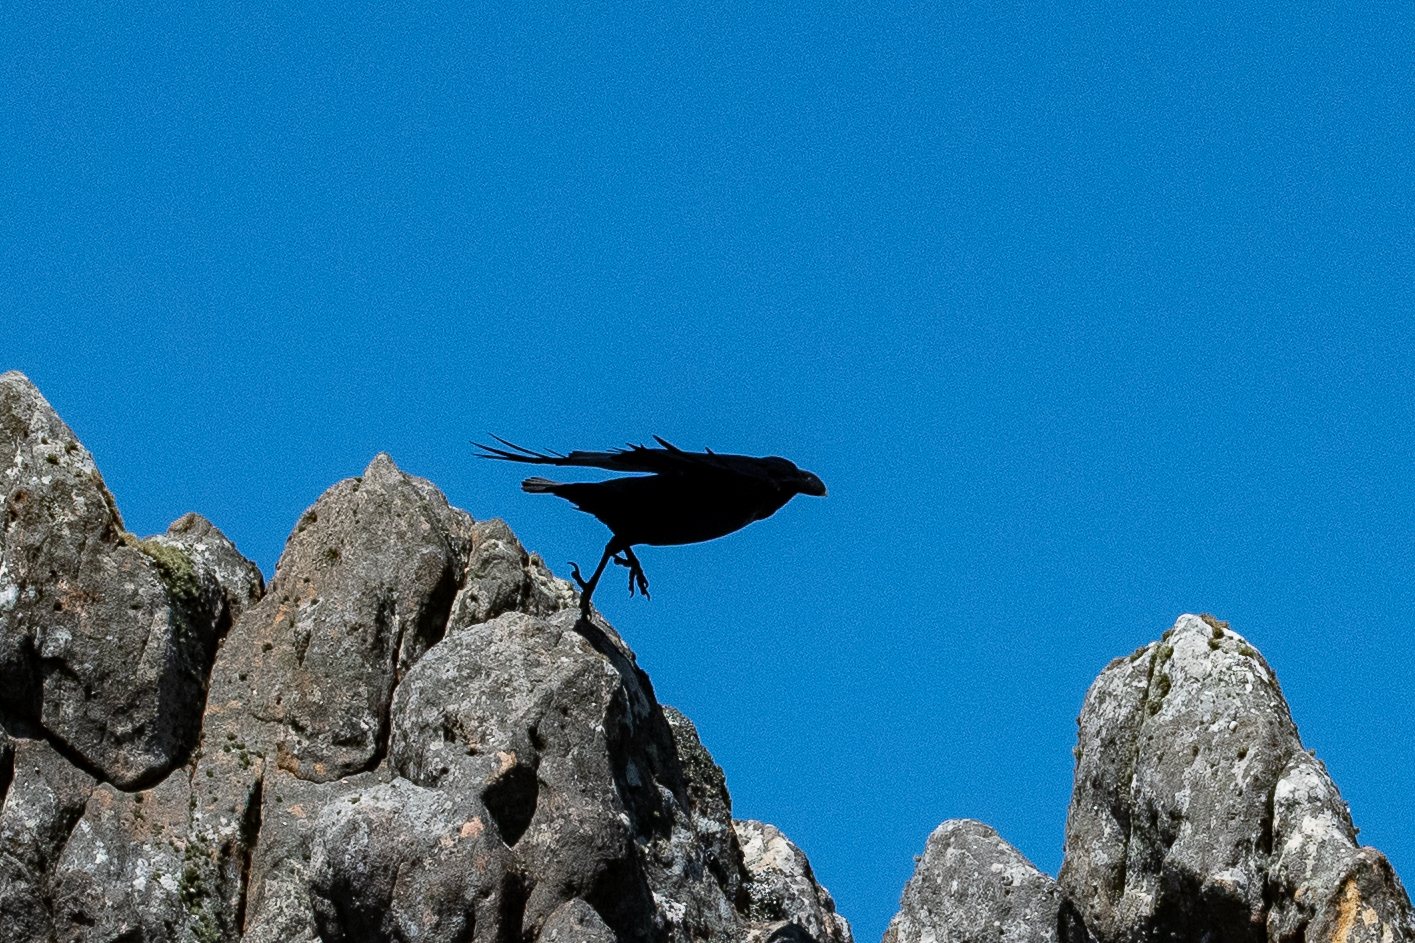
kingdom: Animalia
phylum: Chordata
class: Aves
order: Passeriformes
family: Corvidae
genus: Corvus
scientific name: Corvus albicollis
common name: White-necked raven
